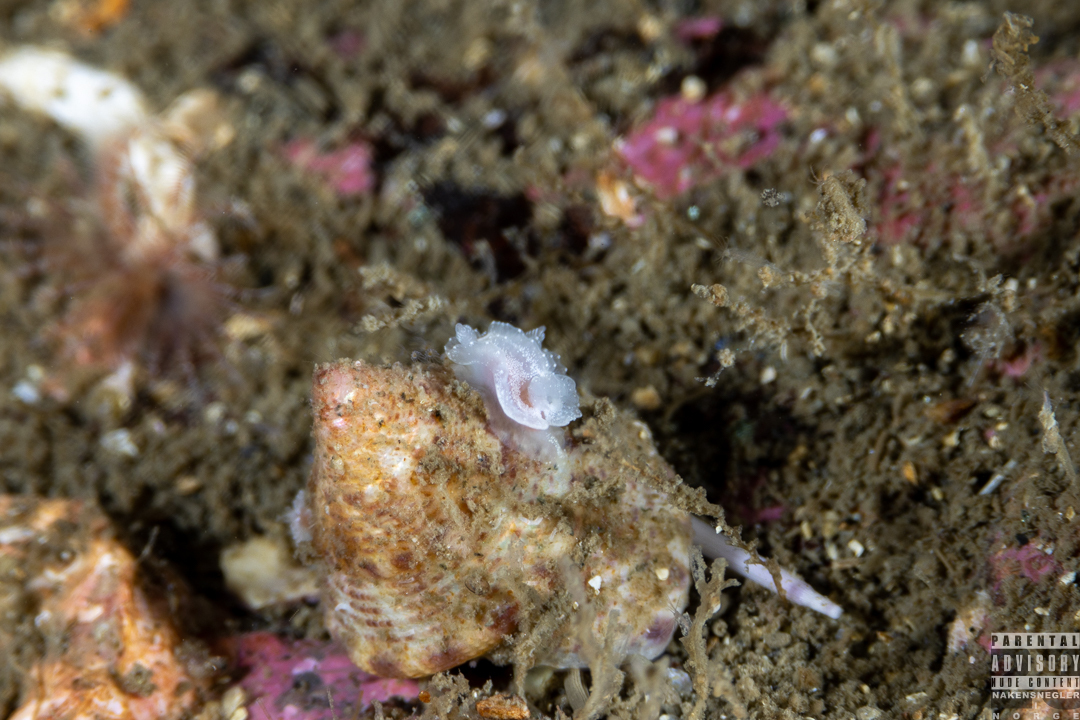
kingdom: Animalia
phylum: Mollusca
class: Gastropoda
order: Nudibranchia
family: Goniodorididae
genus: Okenia
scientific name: Okenia
